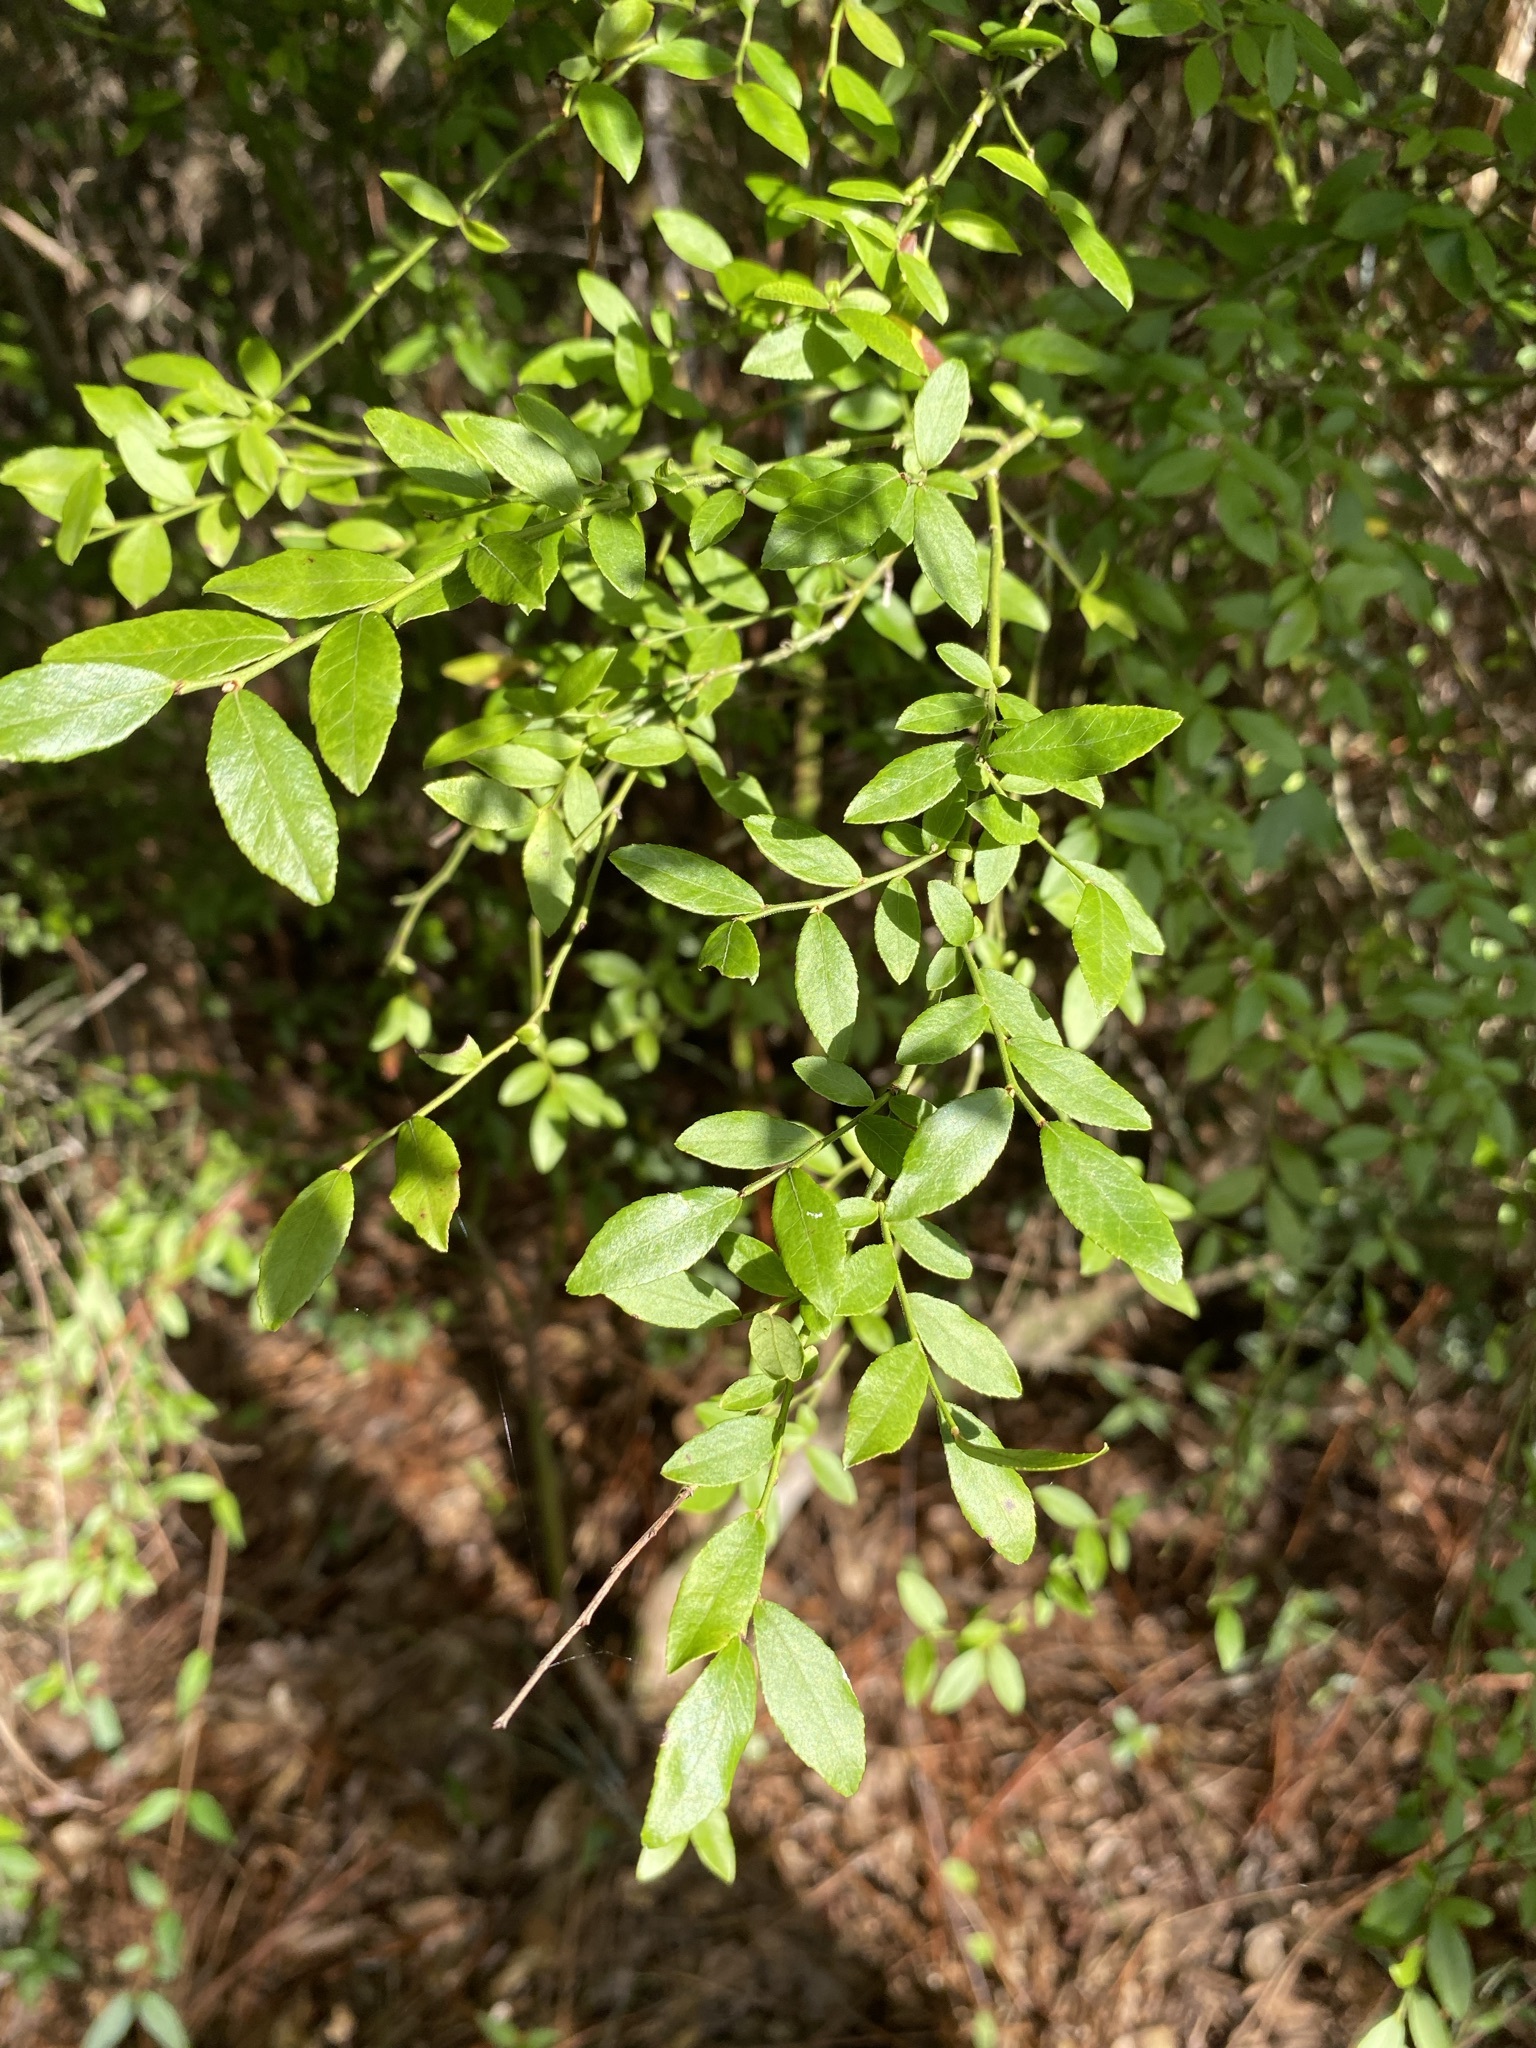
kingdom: Plantae
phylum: Tracheophyta
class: Magnoliopsida
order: Ericales
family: Ericaceae
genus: Vaccinium
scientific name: Vaccinium corymbosum
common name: Blueberry
